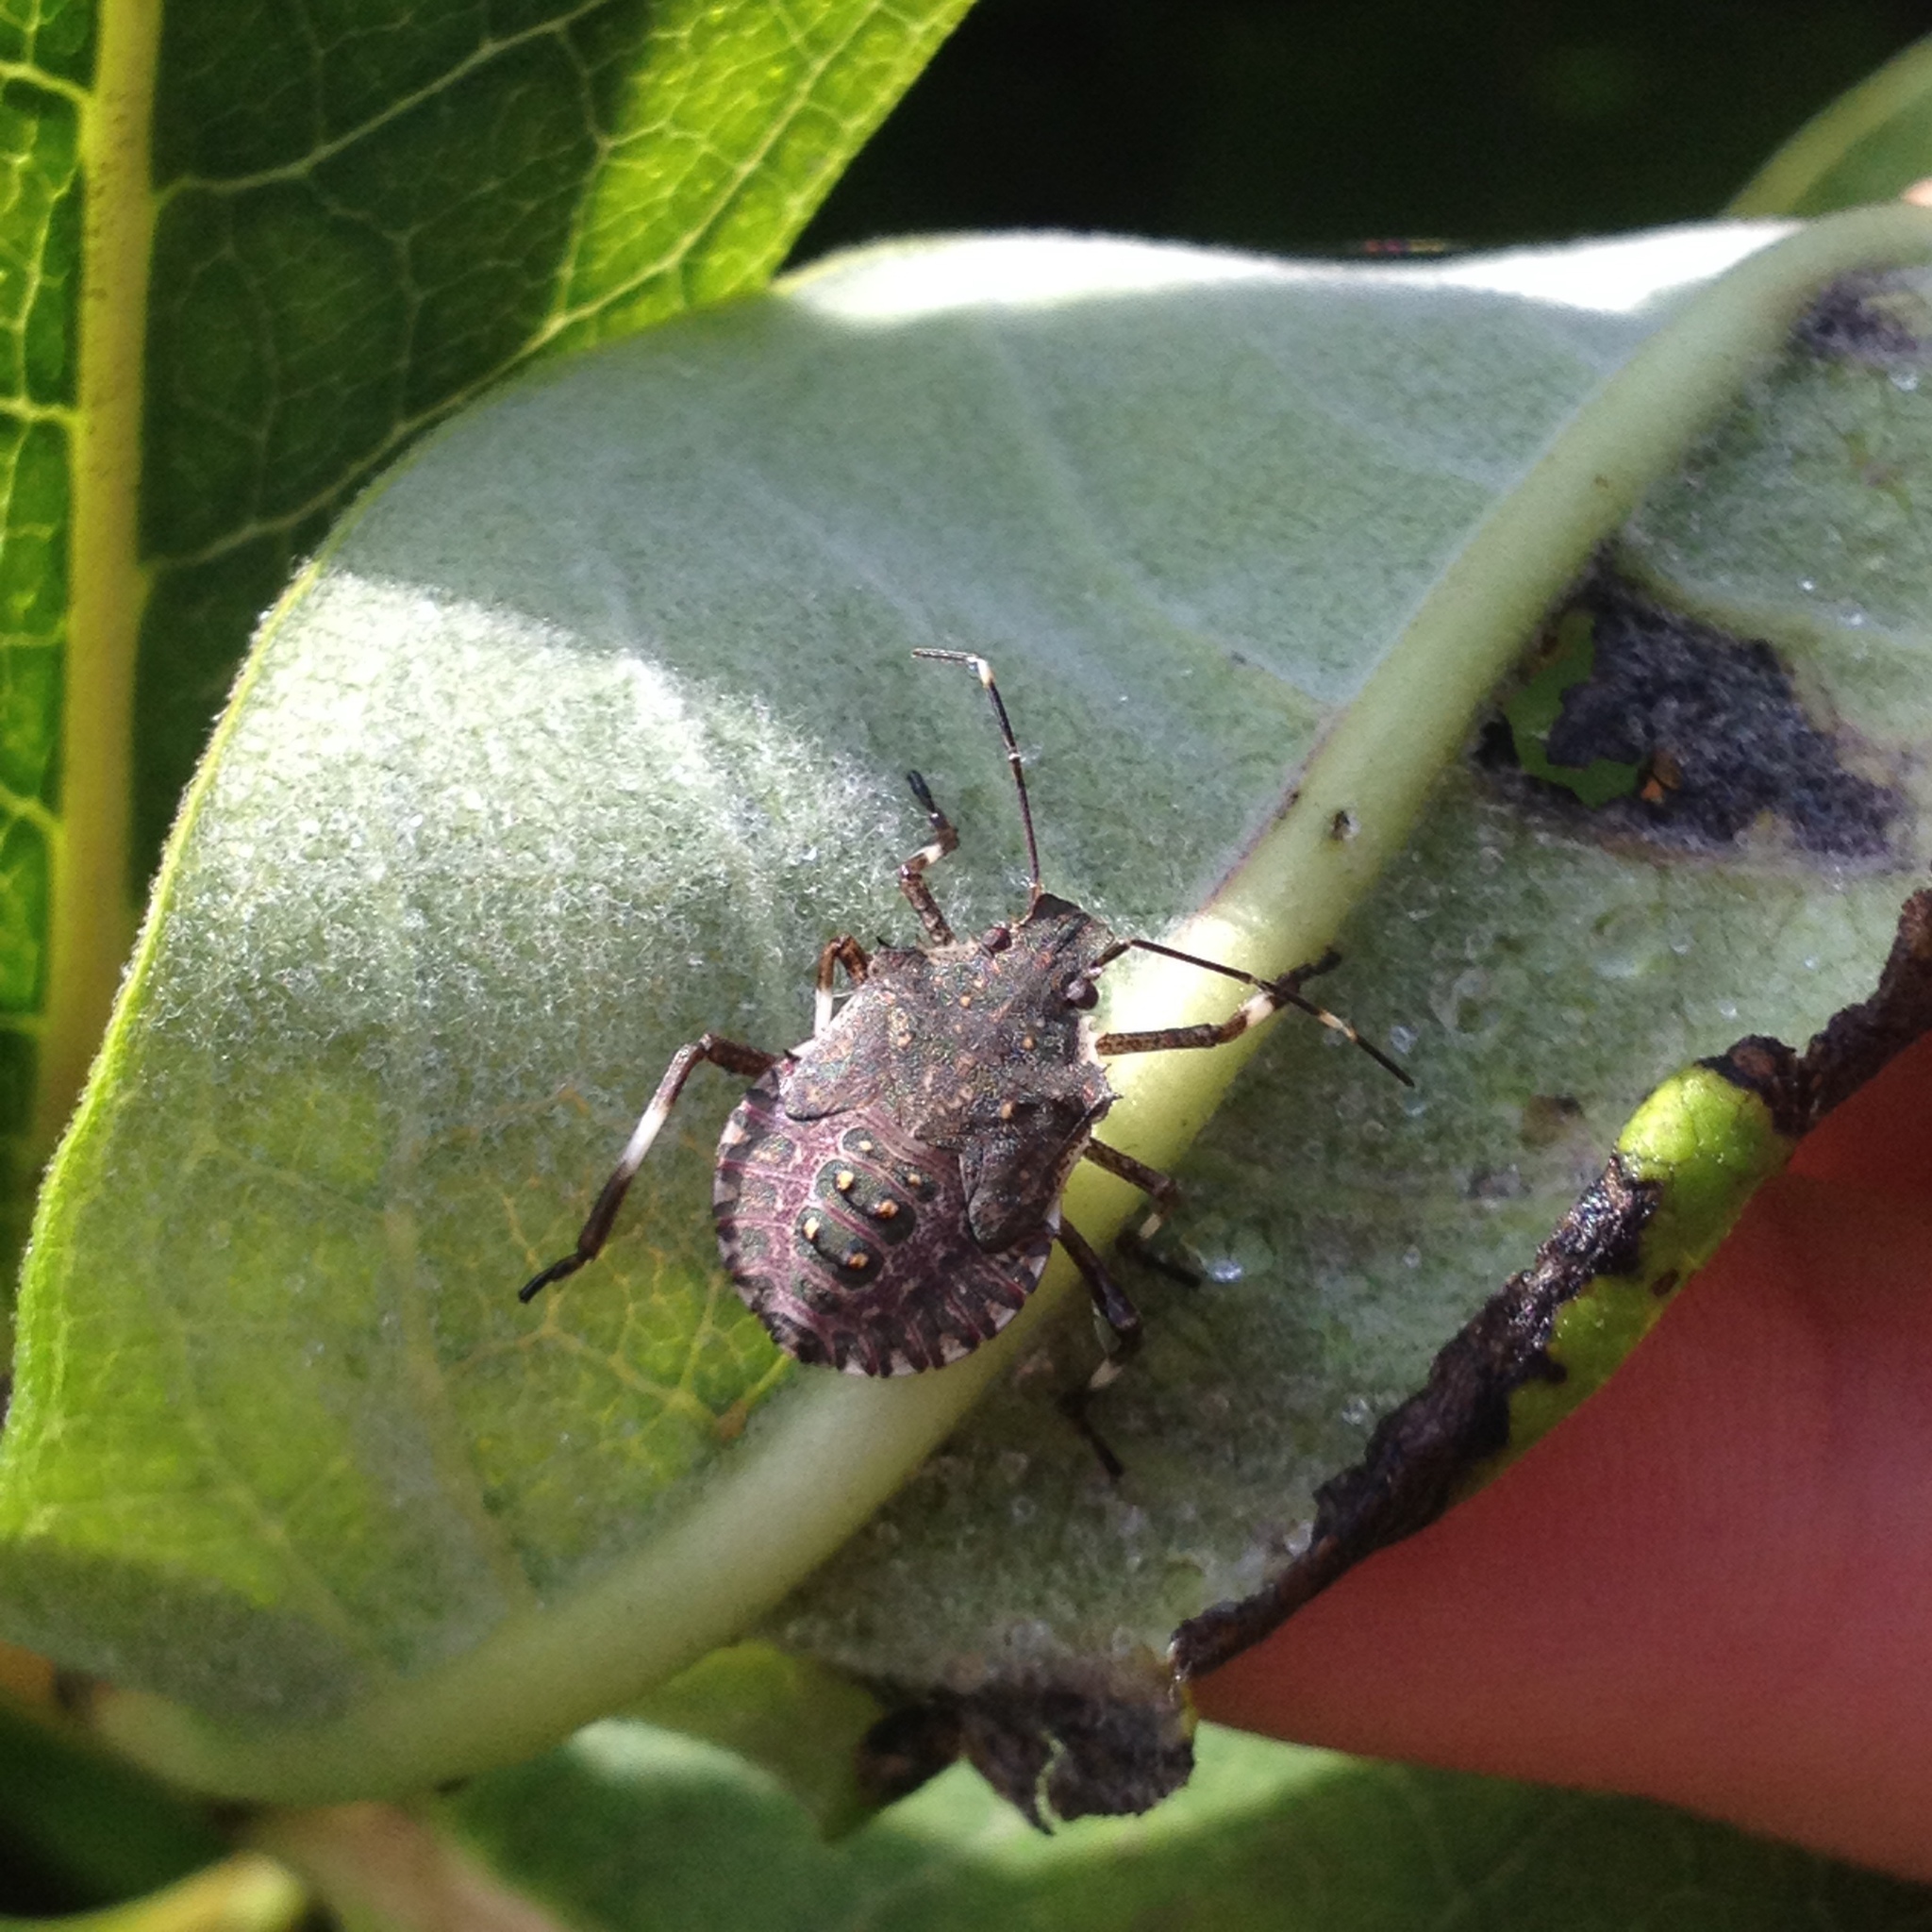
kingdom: Animalia
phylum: Arthropoda
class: Insecta
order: Hemiptera
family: Pentatomidae
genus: Halyomorpha
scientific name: Halyomorpha halys
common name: Brown marmorated stink bug
